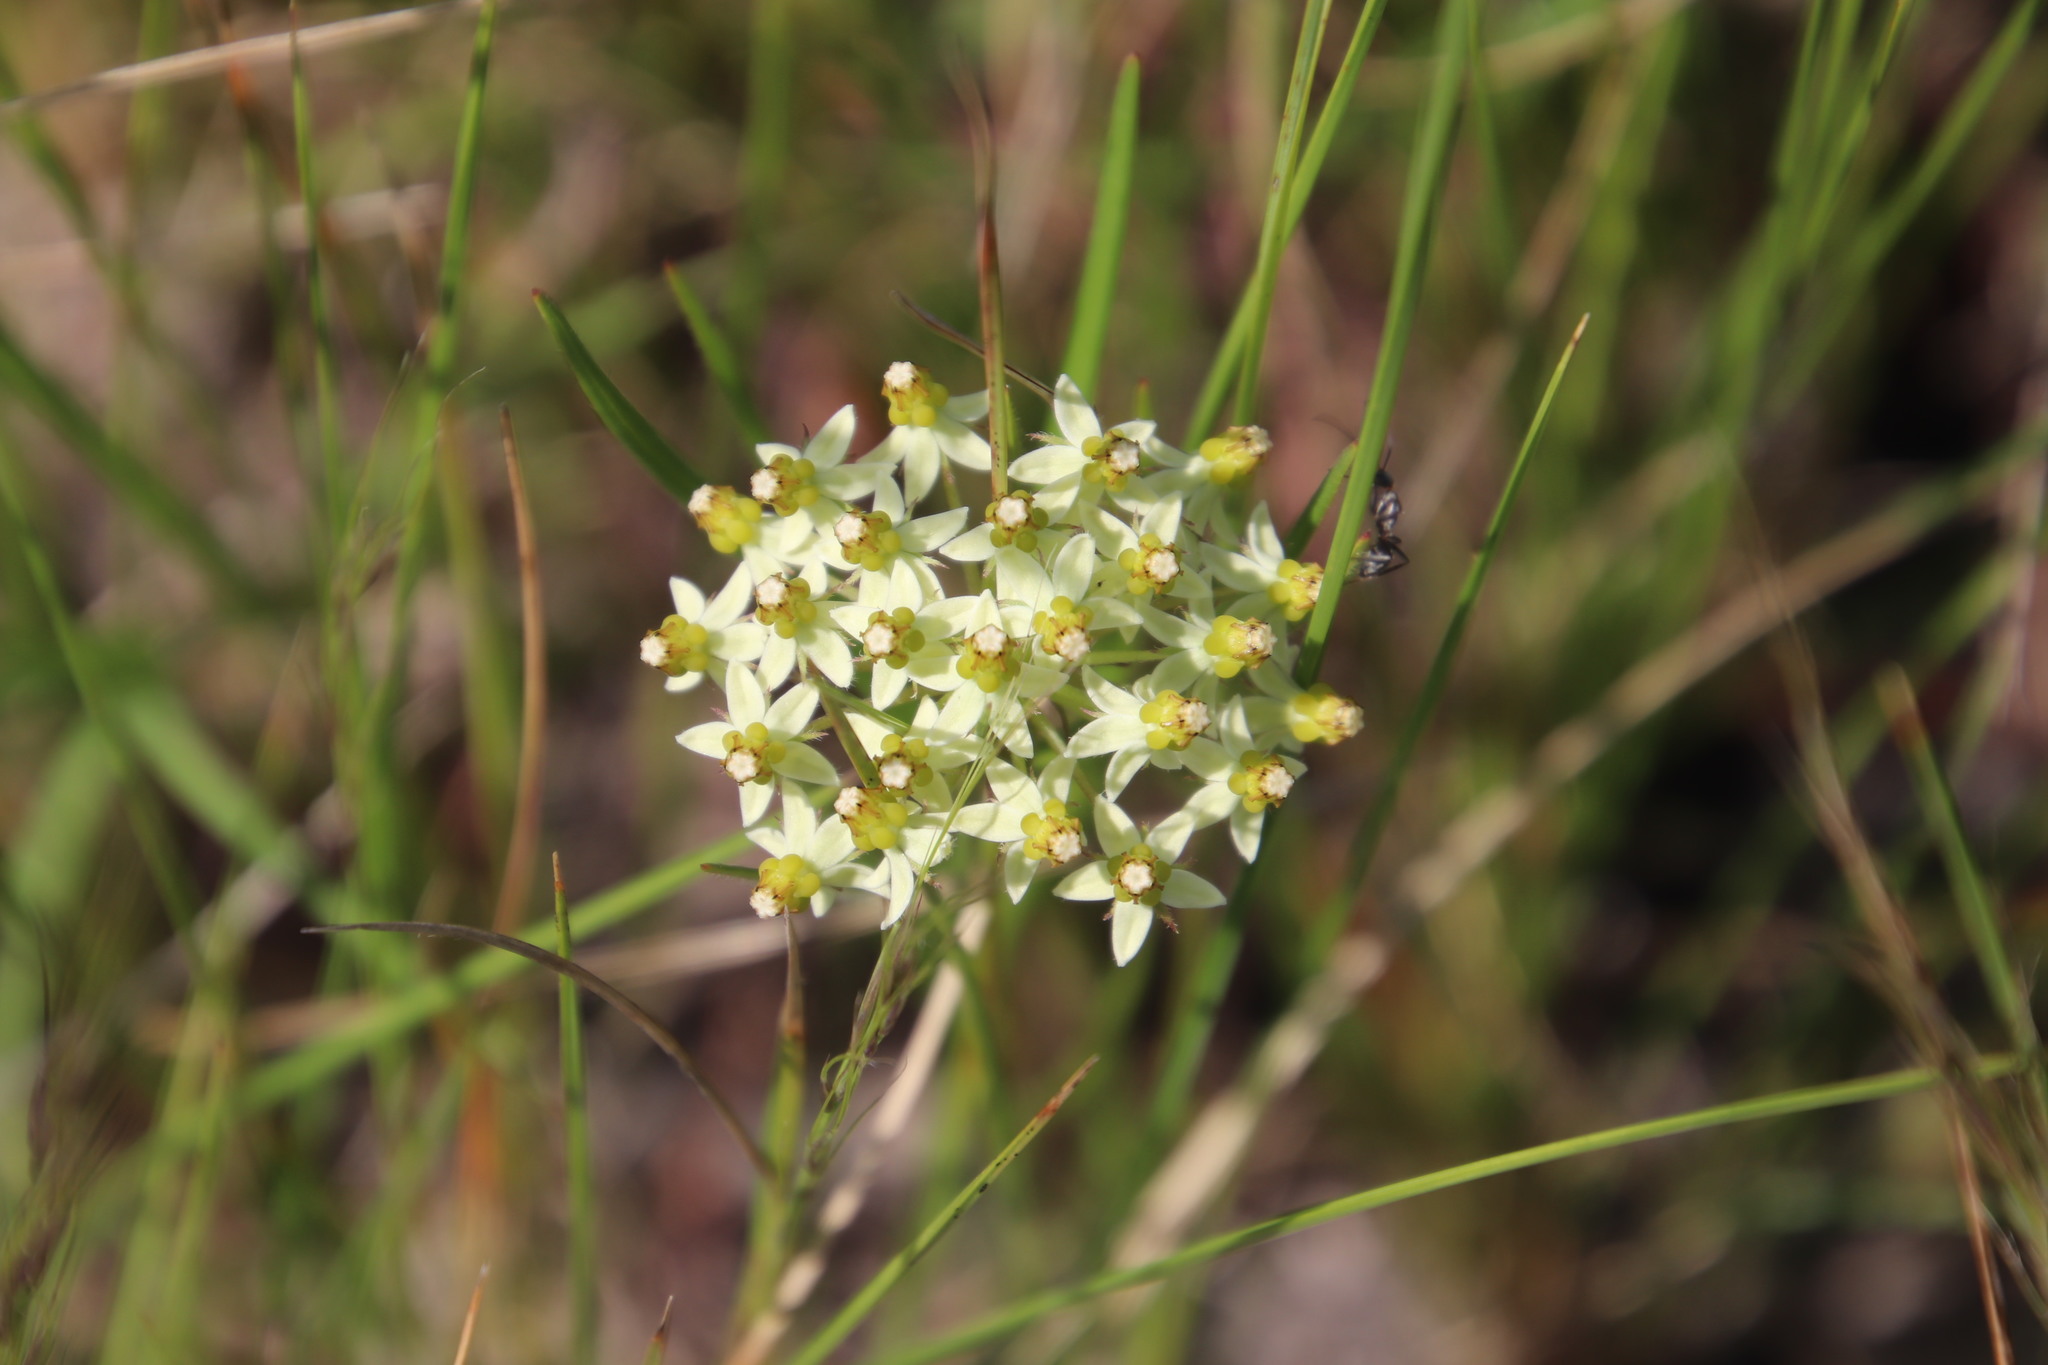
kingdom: Plantae
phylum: Tracheophyta
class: Magnoliopsida
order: Gentianales
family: Apocynaceae
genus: Xysmalobium
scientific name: Xysmalobium involucratum
